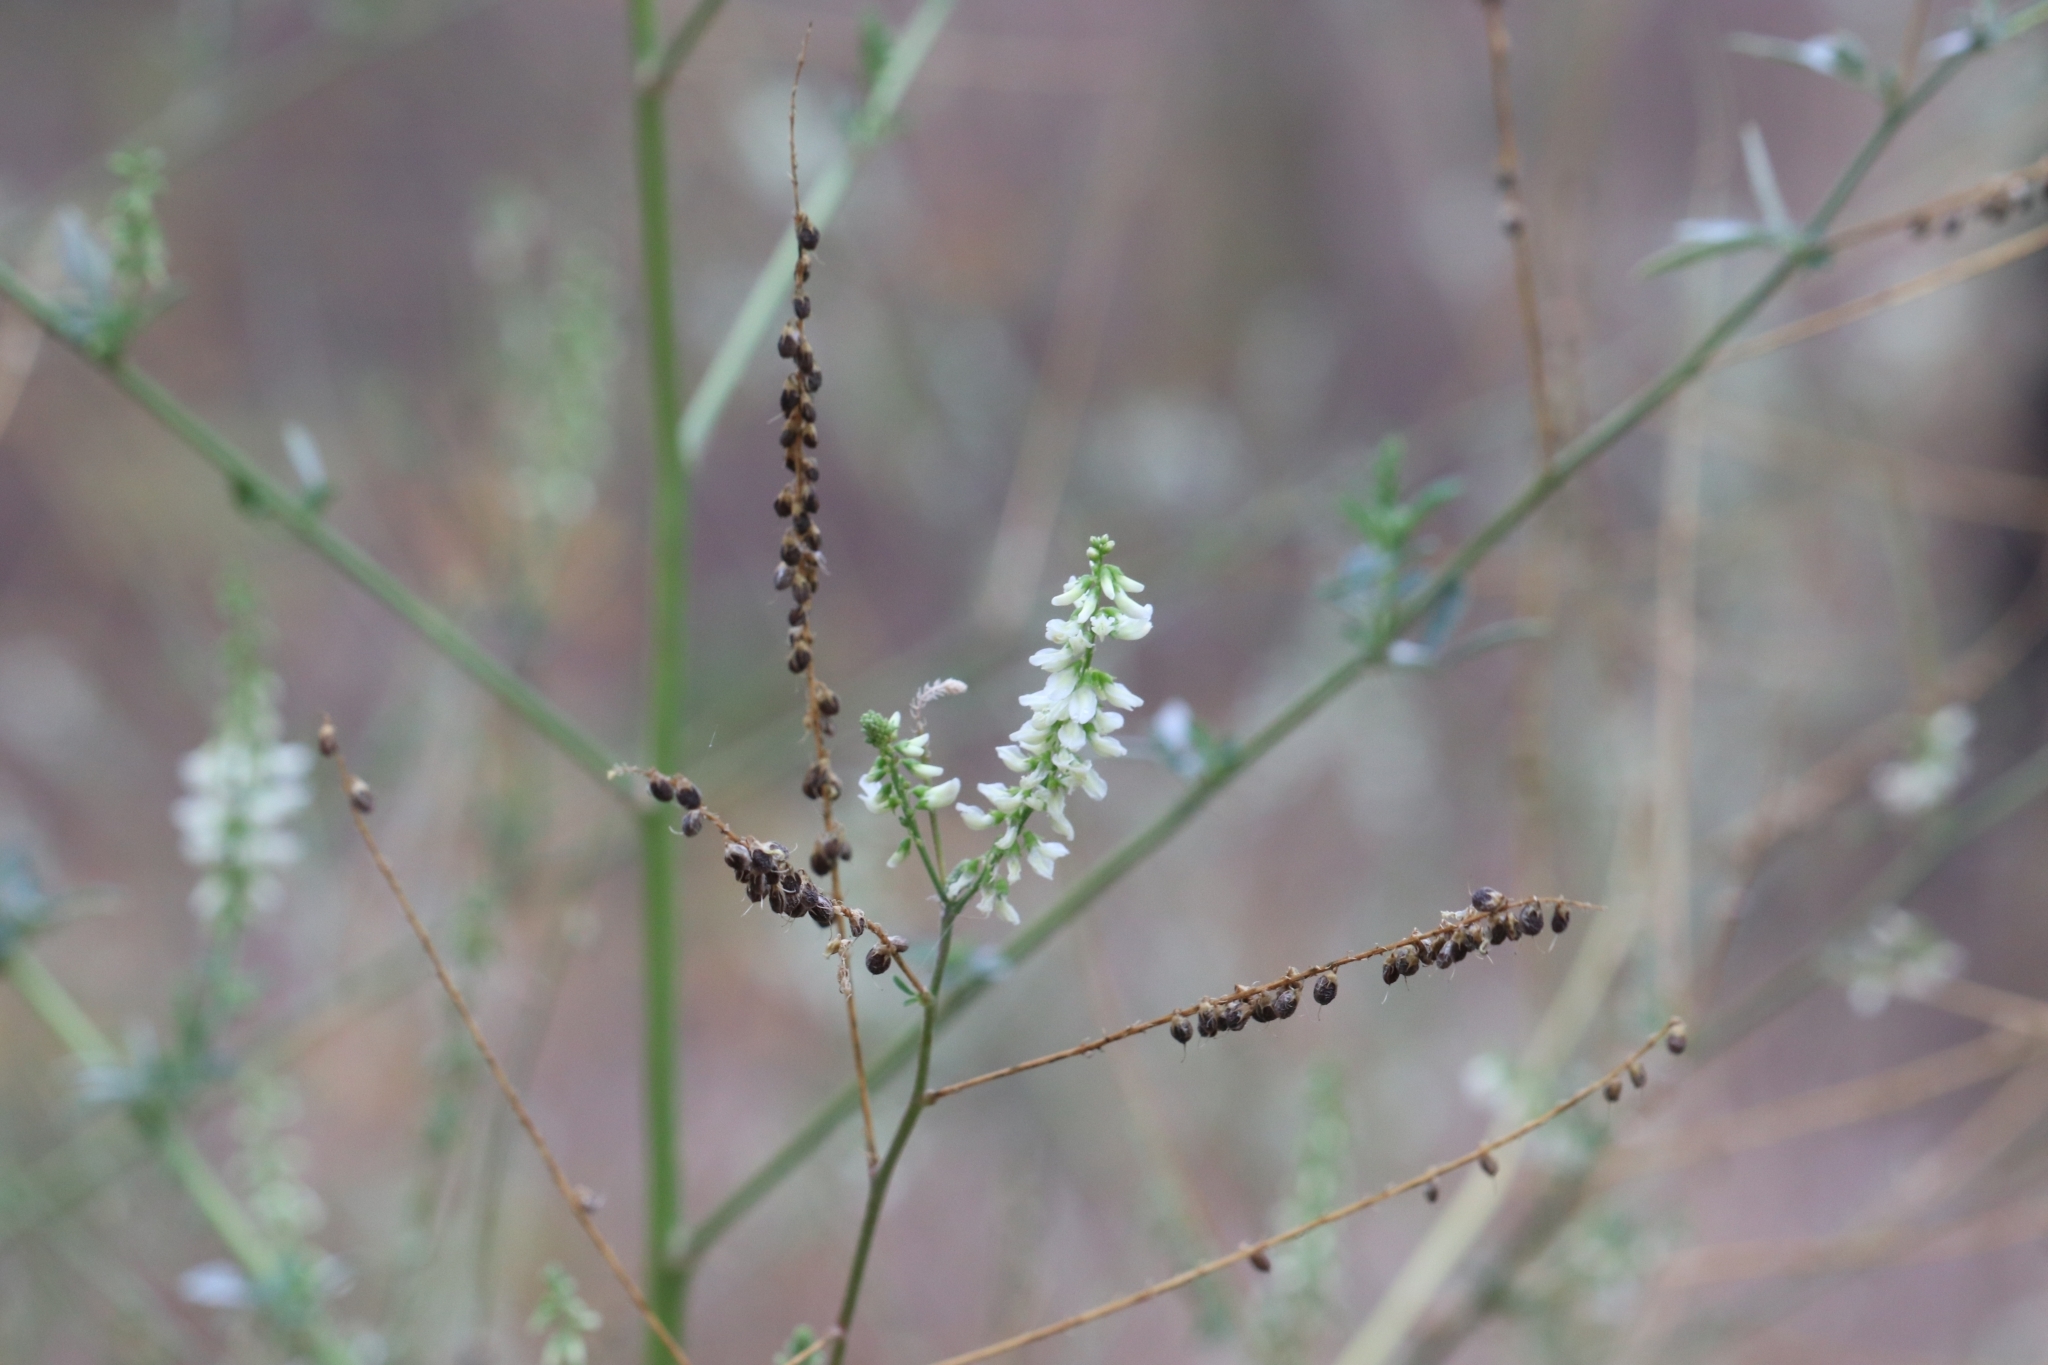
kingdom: Plantae
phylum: Tracheophyta
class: Magnoliopsida
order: Fabales
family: Fabaceae
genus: Melilotus
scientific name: Melilotus albus
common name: White melilot
